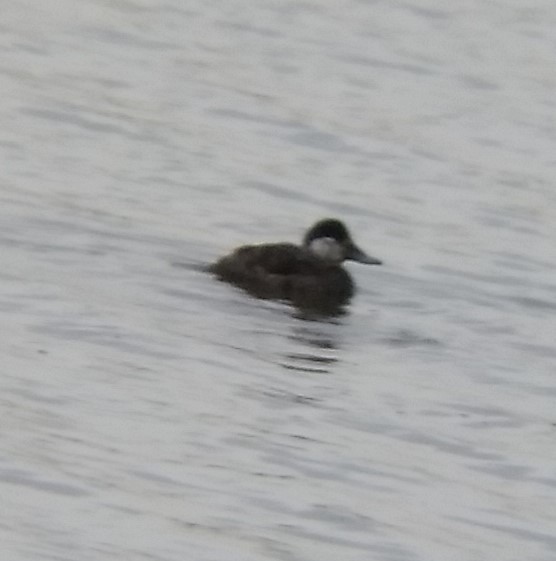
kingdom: Animalia
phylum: Chordata
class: Aves
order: Anseriformes
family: Anatidae
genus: Oxyura
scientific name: Oxyura jamaicensis
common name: Ruddy duck
